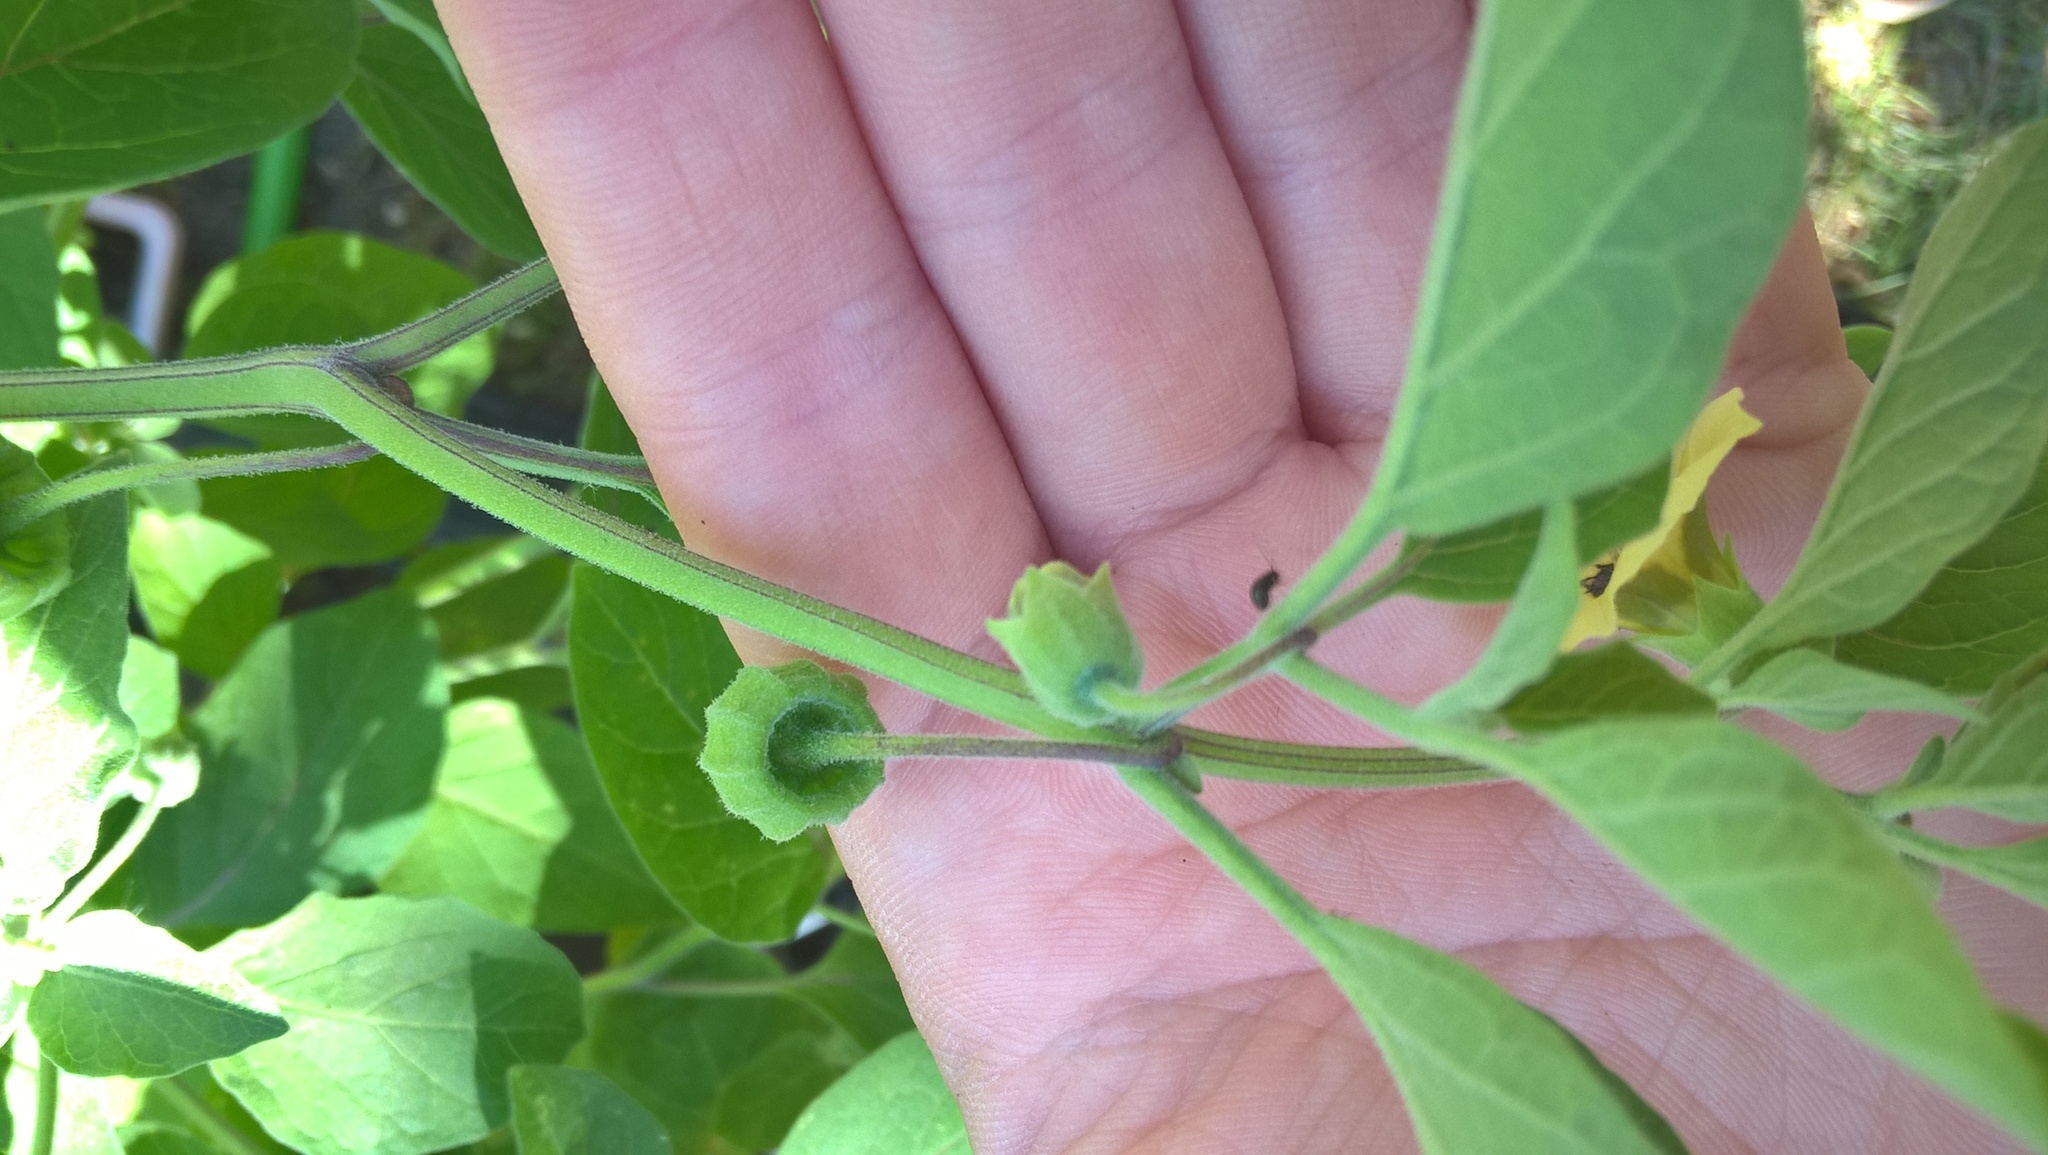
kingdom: Plantae
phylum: Tracheophyta
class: Magnoliopsida
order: Solanales
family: Solanaceae
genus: Physalis
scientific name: Physalis walteri
